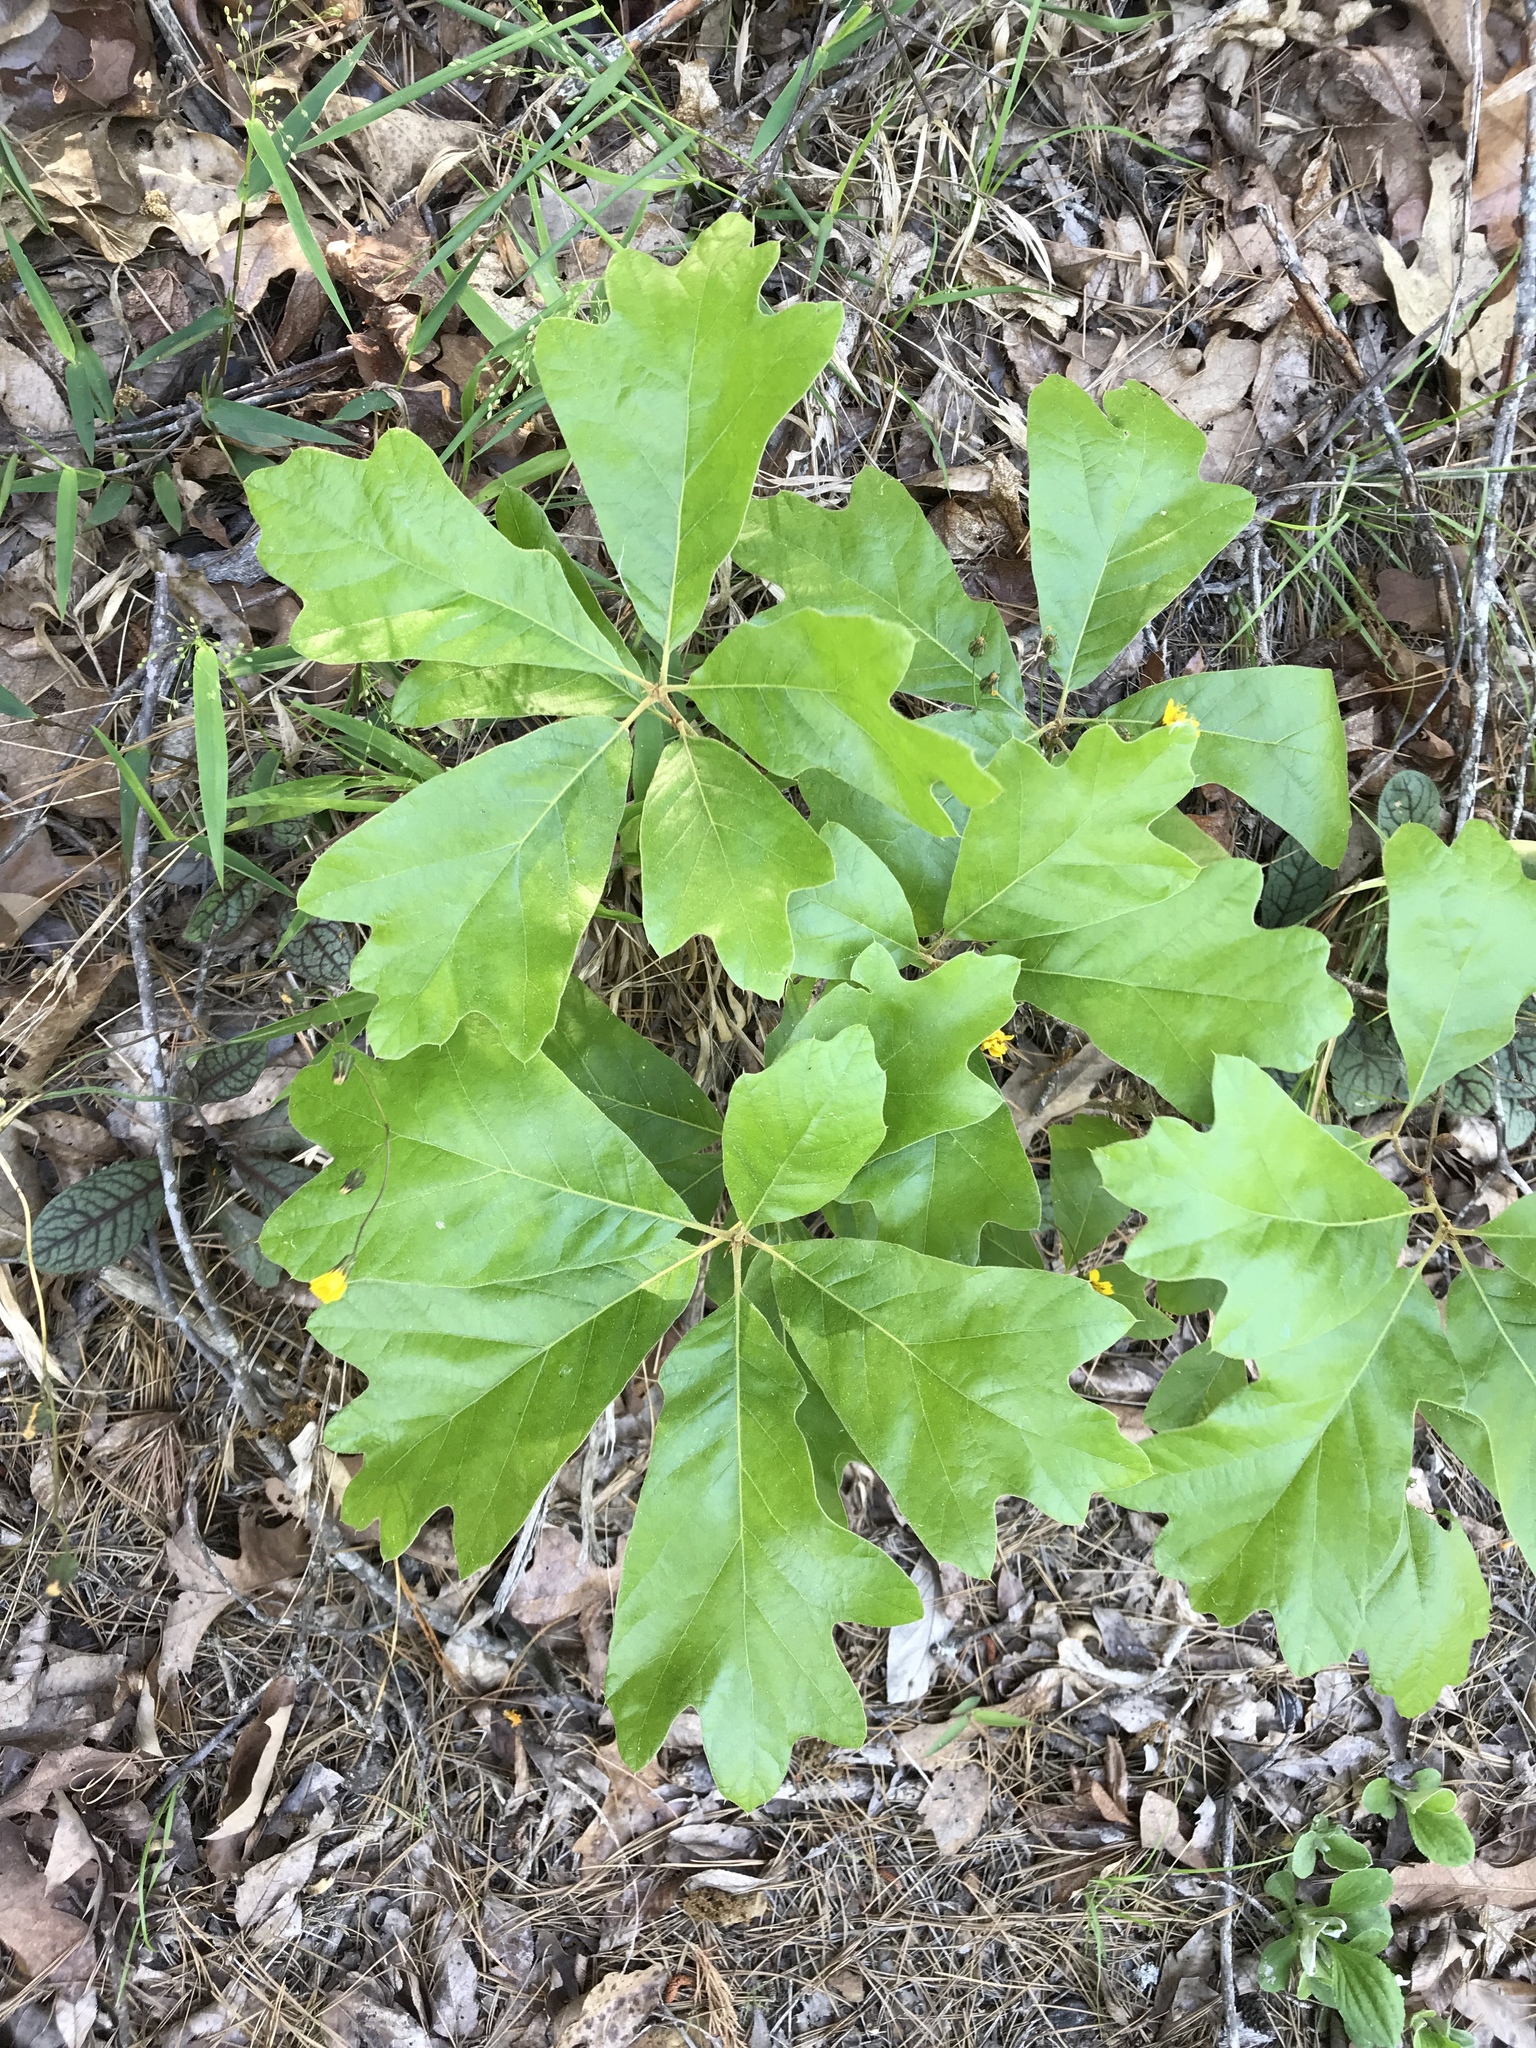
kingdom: Plantae
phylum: Tracheophyta
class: Magnoliopsida
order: Fagales
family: Fagaceae
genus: Quercus
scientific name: Quercus falcata
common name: Southern red oak
